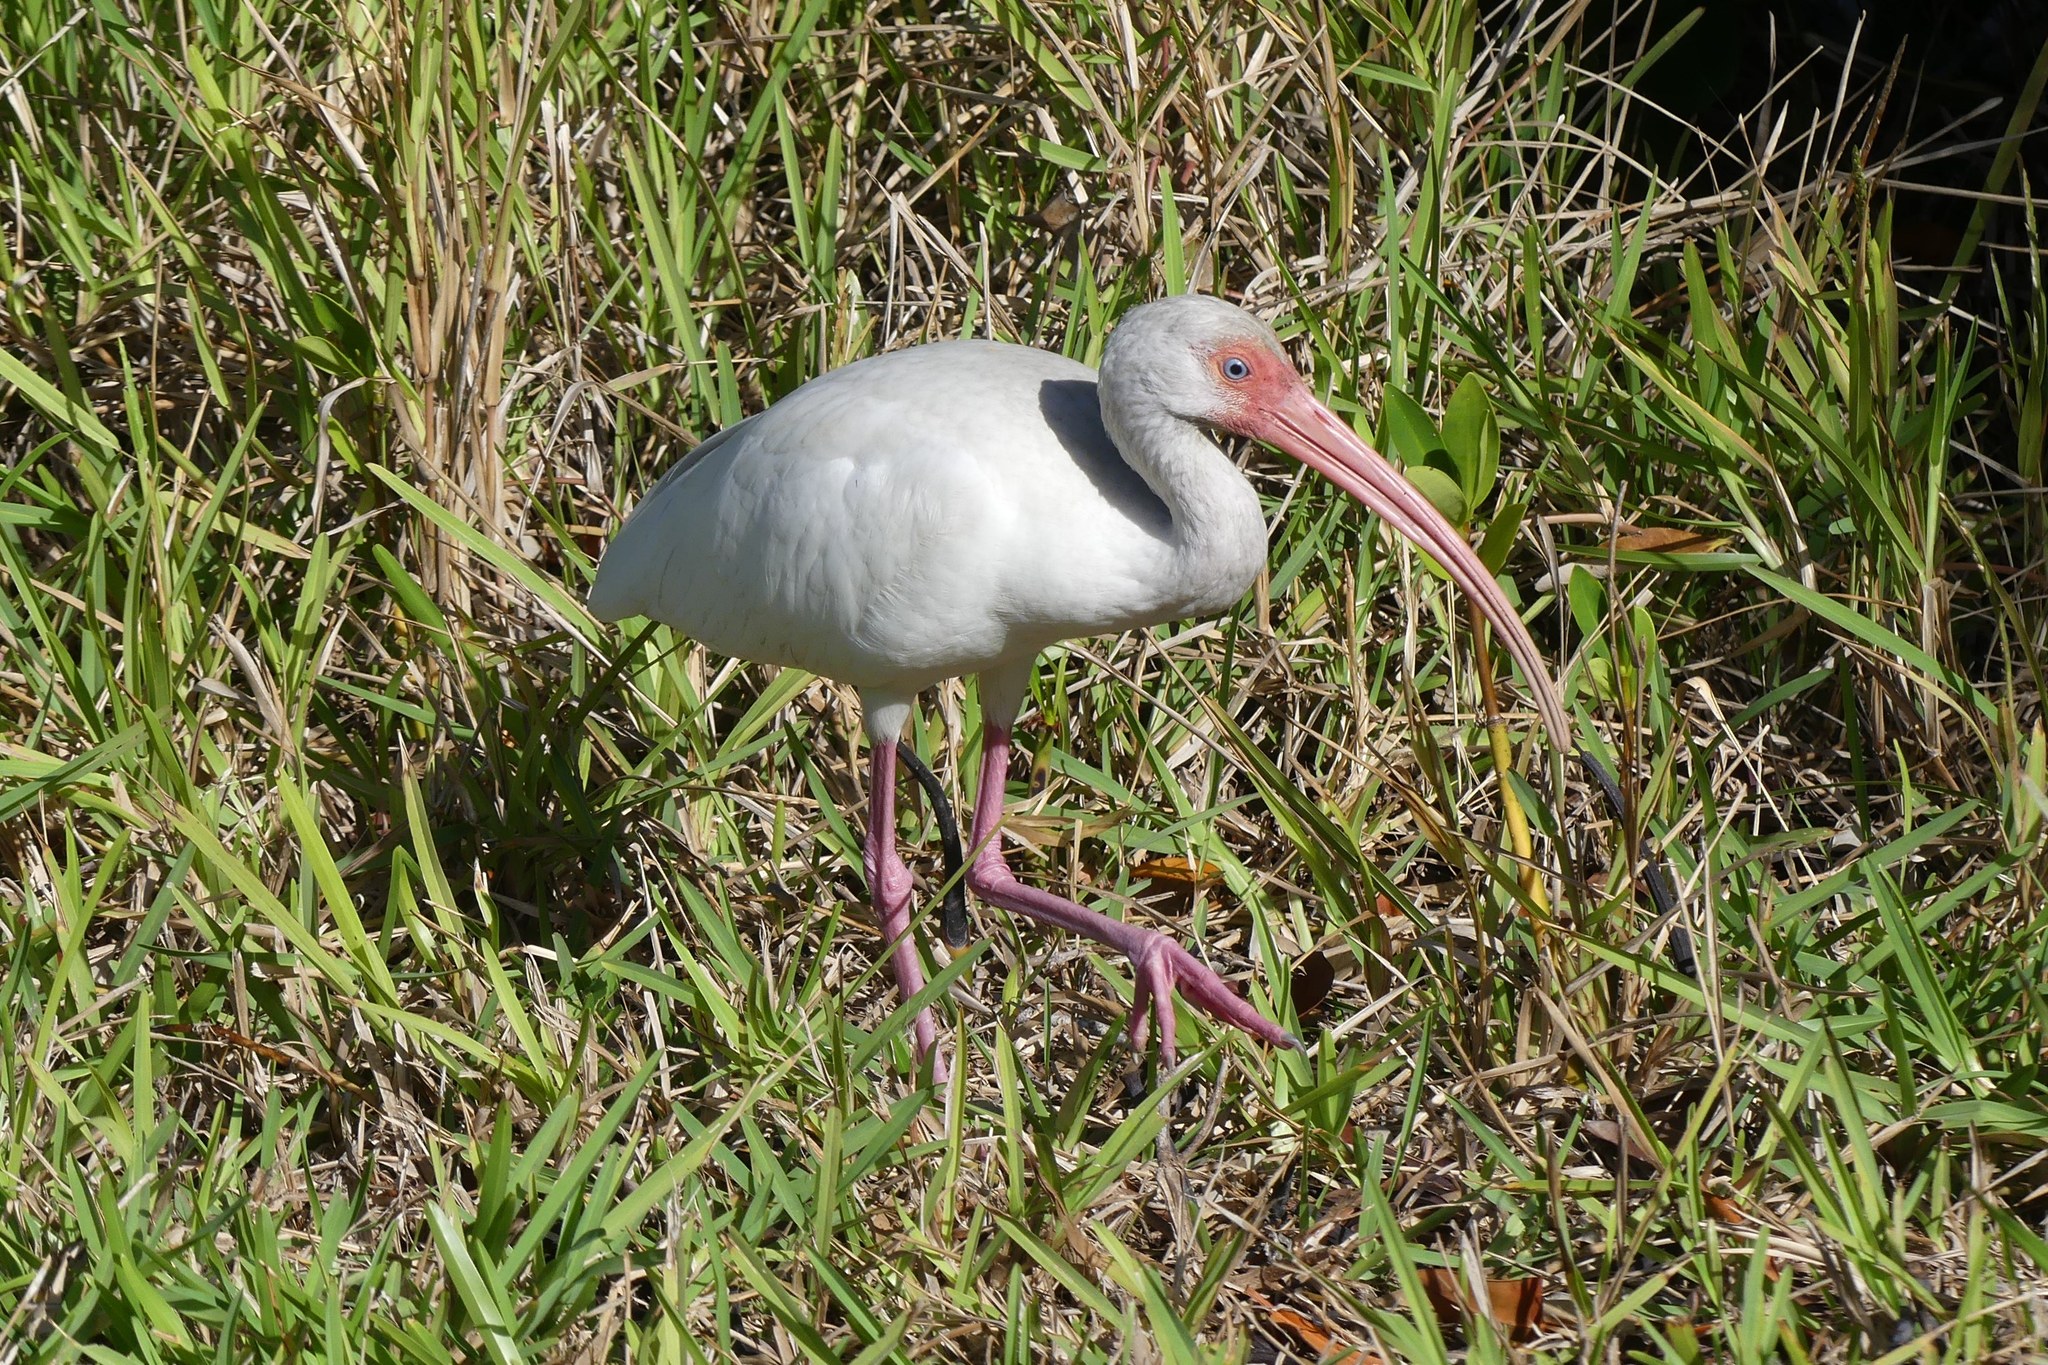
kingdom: Animalia
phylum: Chordata
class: Aves
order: Pelecaniformes
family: Threskiornithidae
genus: Eudocimus
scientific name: Eudocimus albus
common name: White ibis
